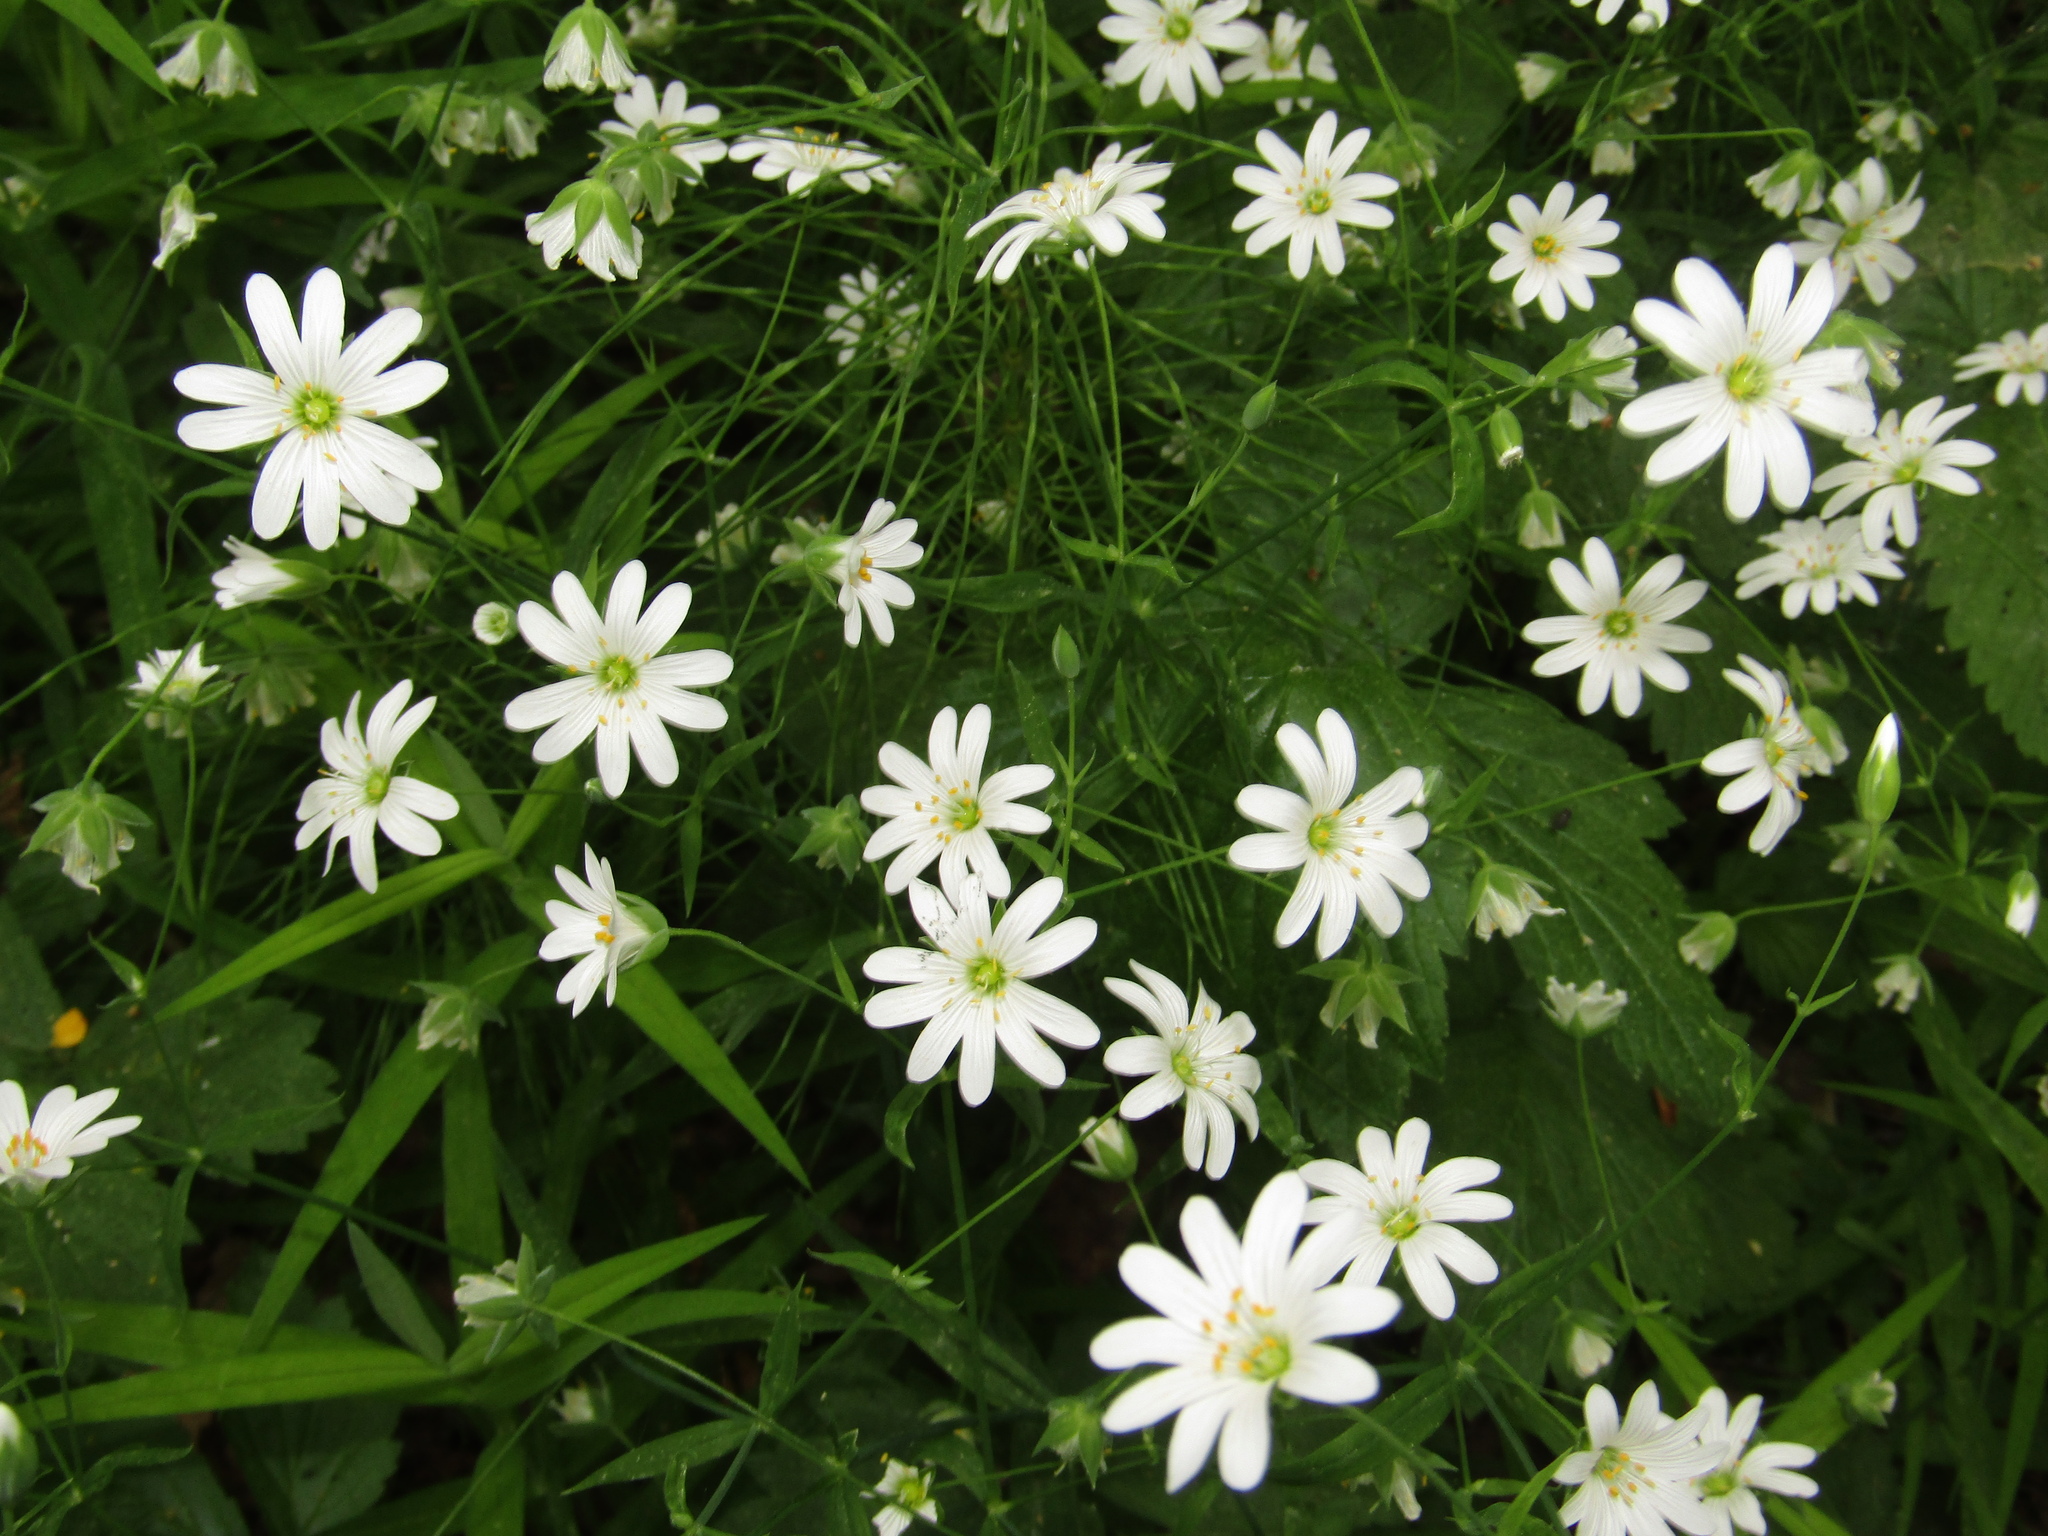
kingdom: Plantae
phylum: Tracheophyta
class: Magnoliopsida
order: Caryophyllales
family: Caryophyllaceae
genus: Rabelera
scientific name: Rabelera holostea
